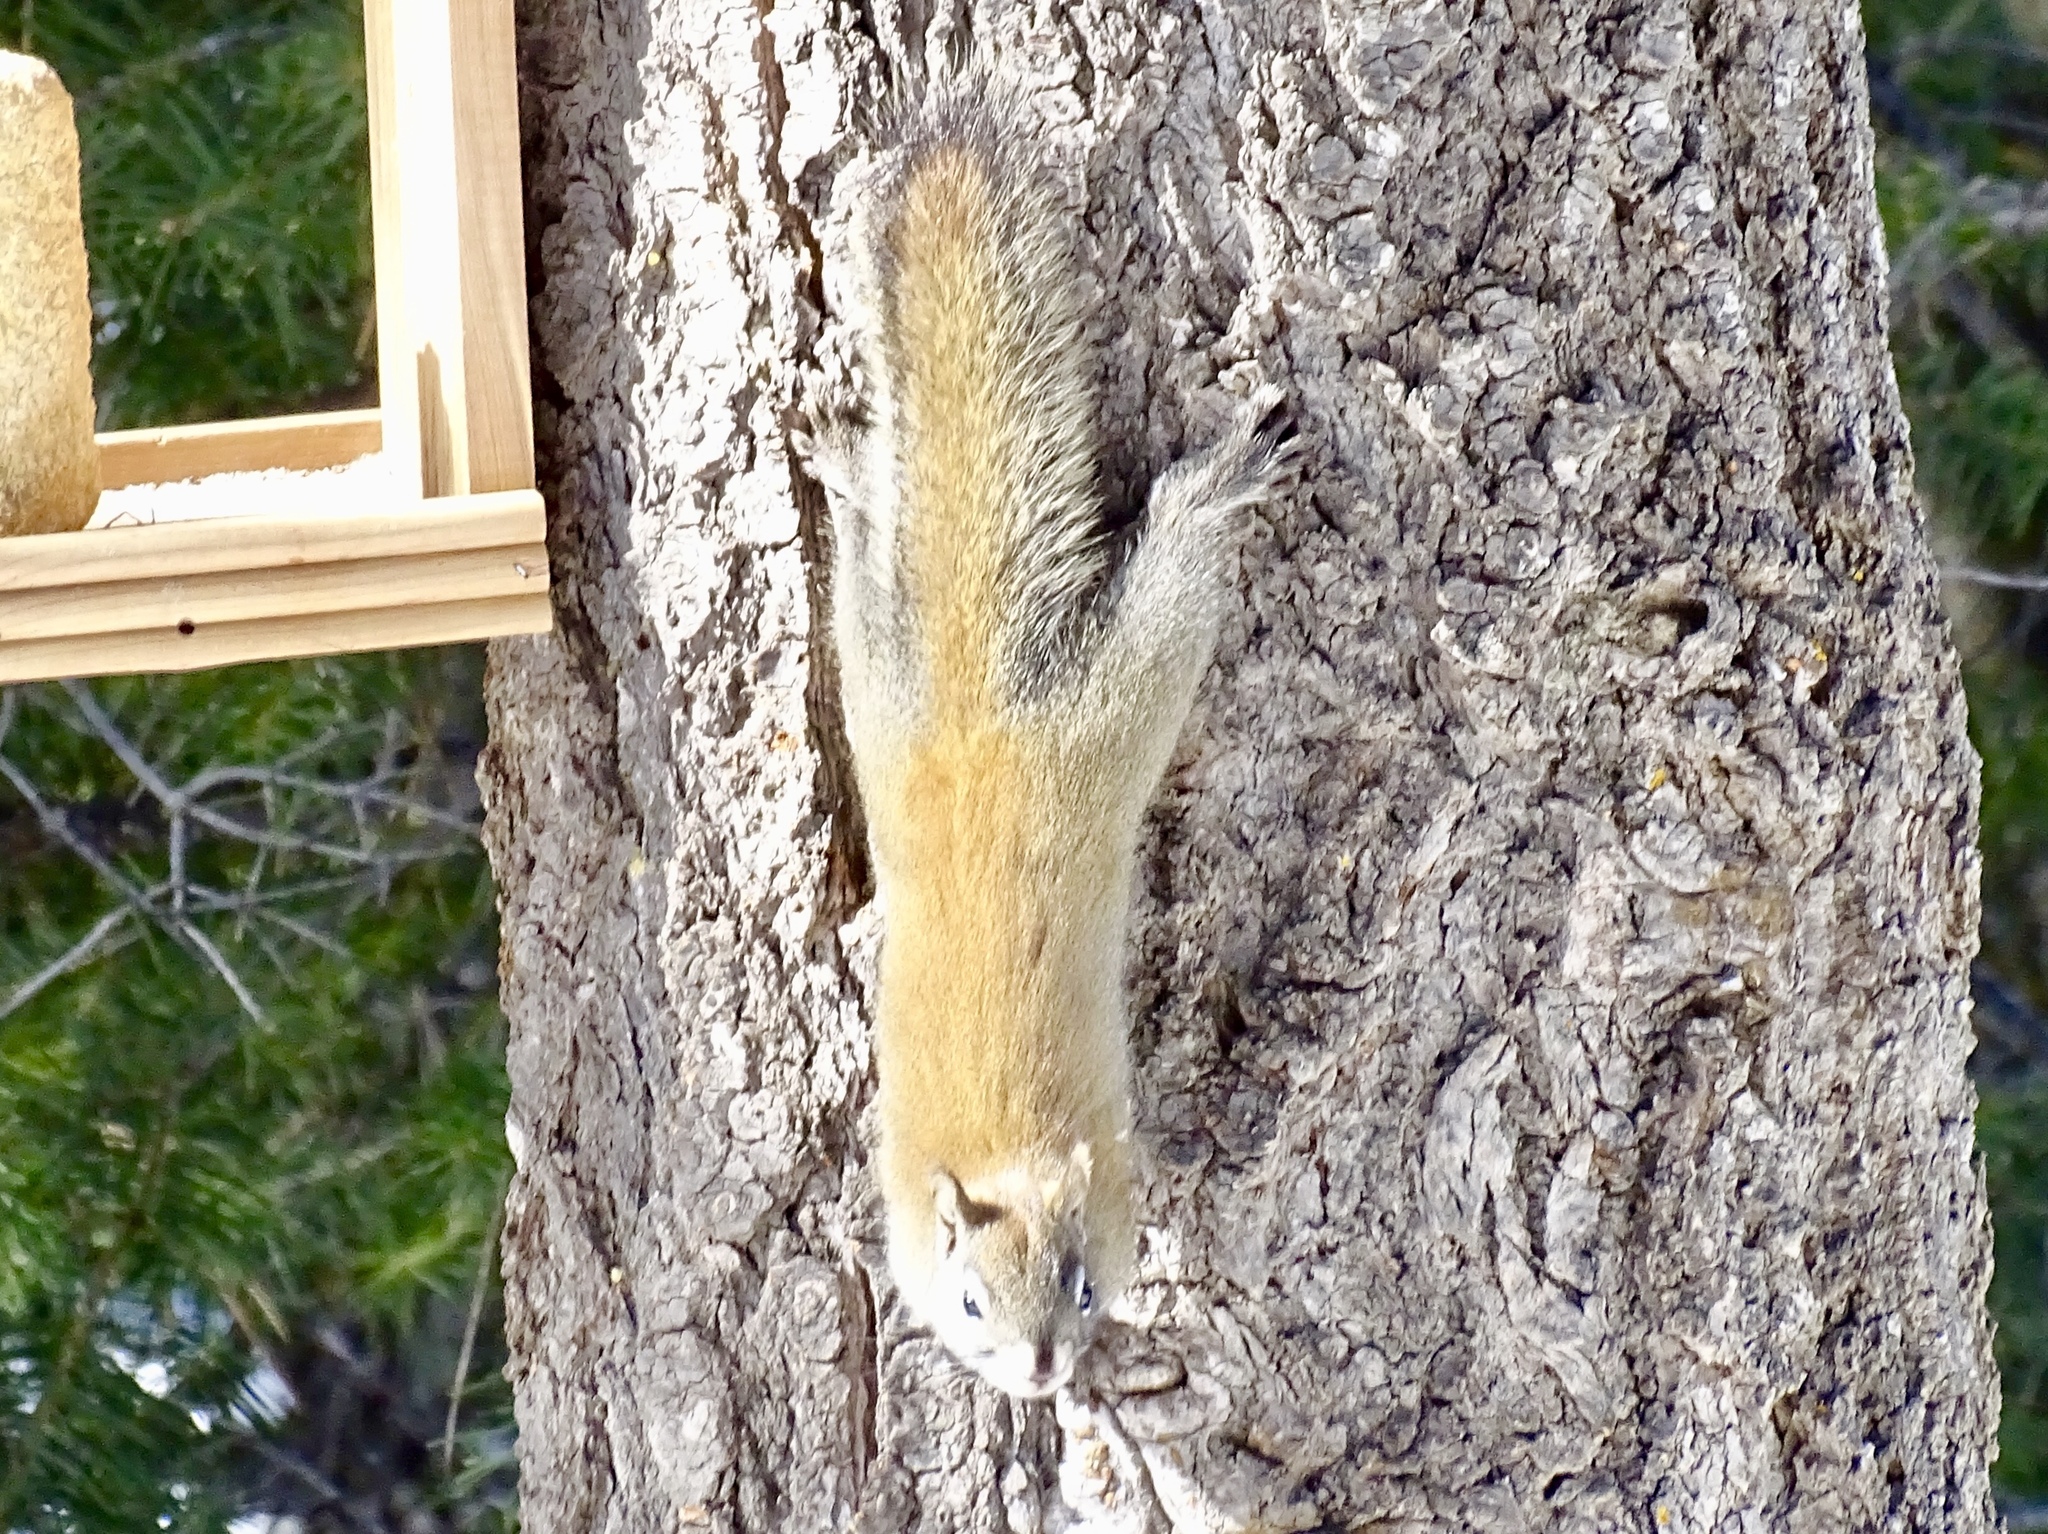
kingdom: Animalia
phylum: Chordata
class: Mammalia
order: Rodentia
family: Sciuridae
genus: Tamiasciurus
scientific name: Tamiasciurus hudsonicus
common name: Red squirrel
